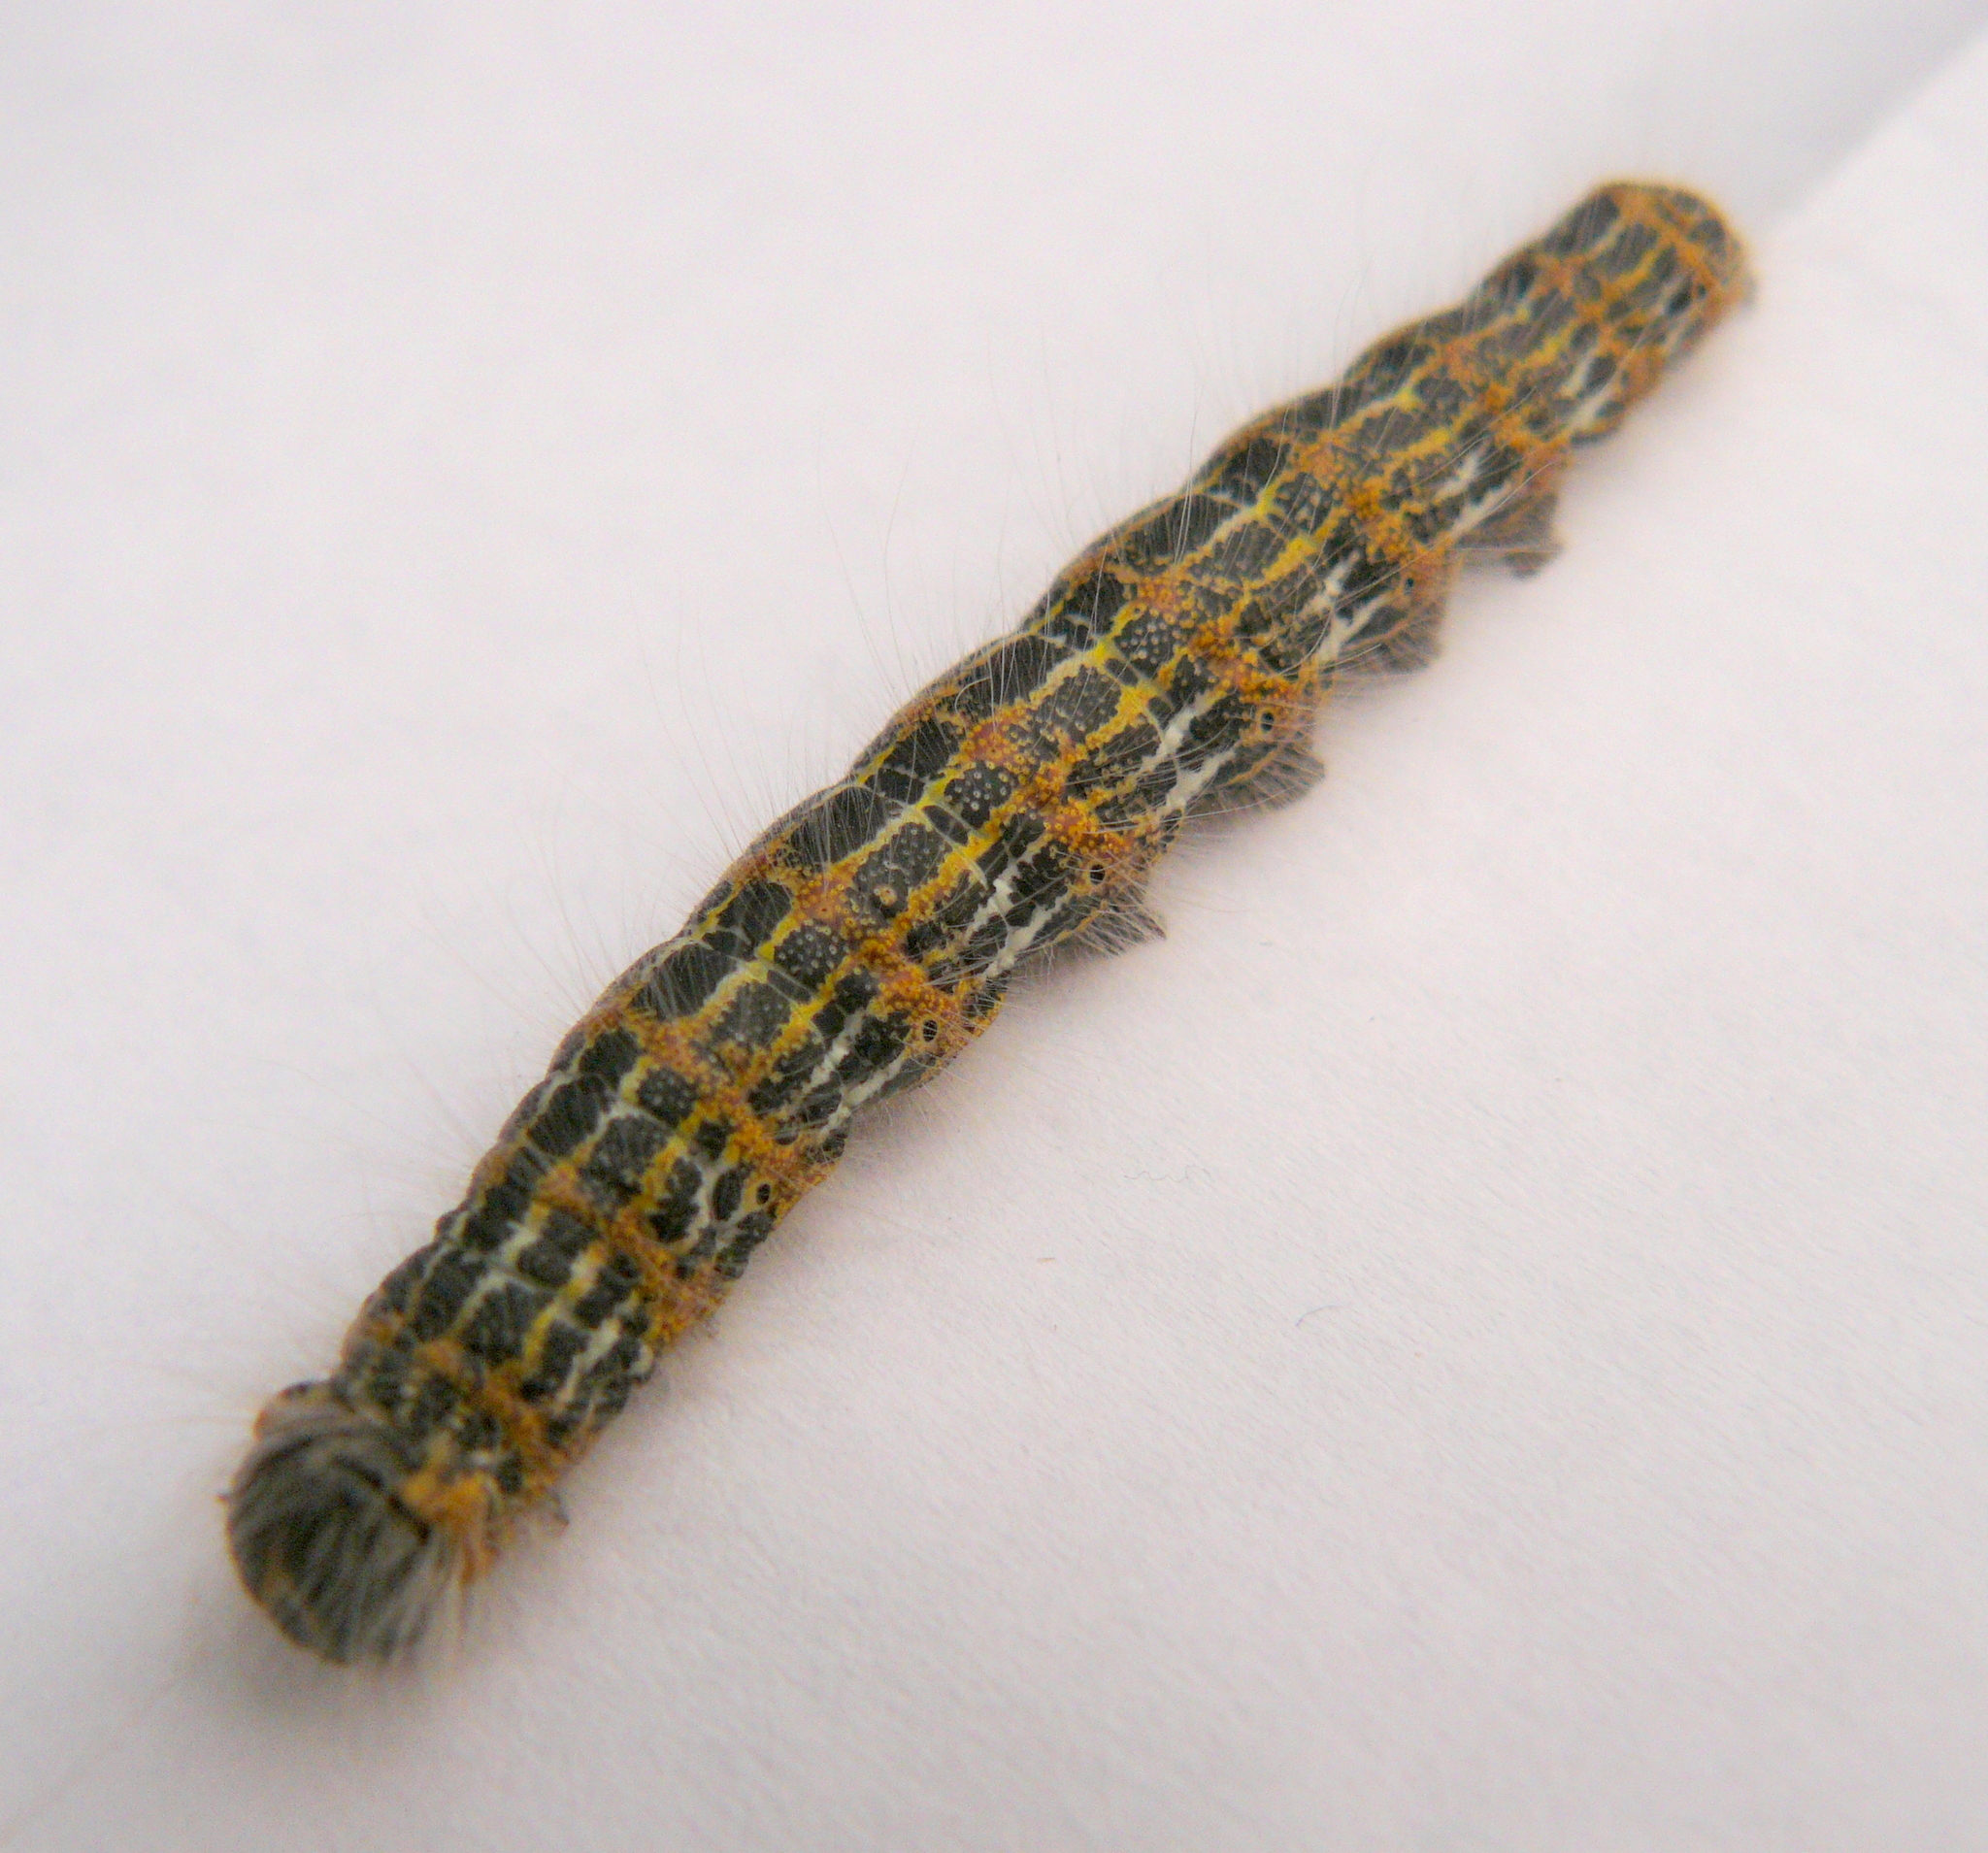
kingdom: Animalia
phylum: Arthropoda
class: Insecta
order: Lepidoptera
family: Notodontidae
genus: Phalera
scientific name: Phalera bucephala
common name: Buff-tip
